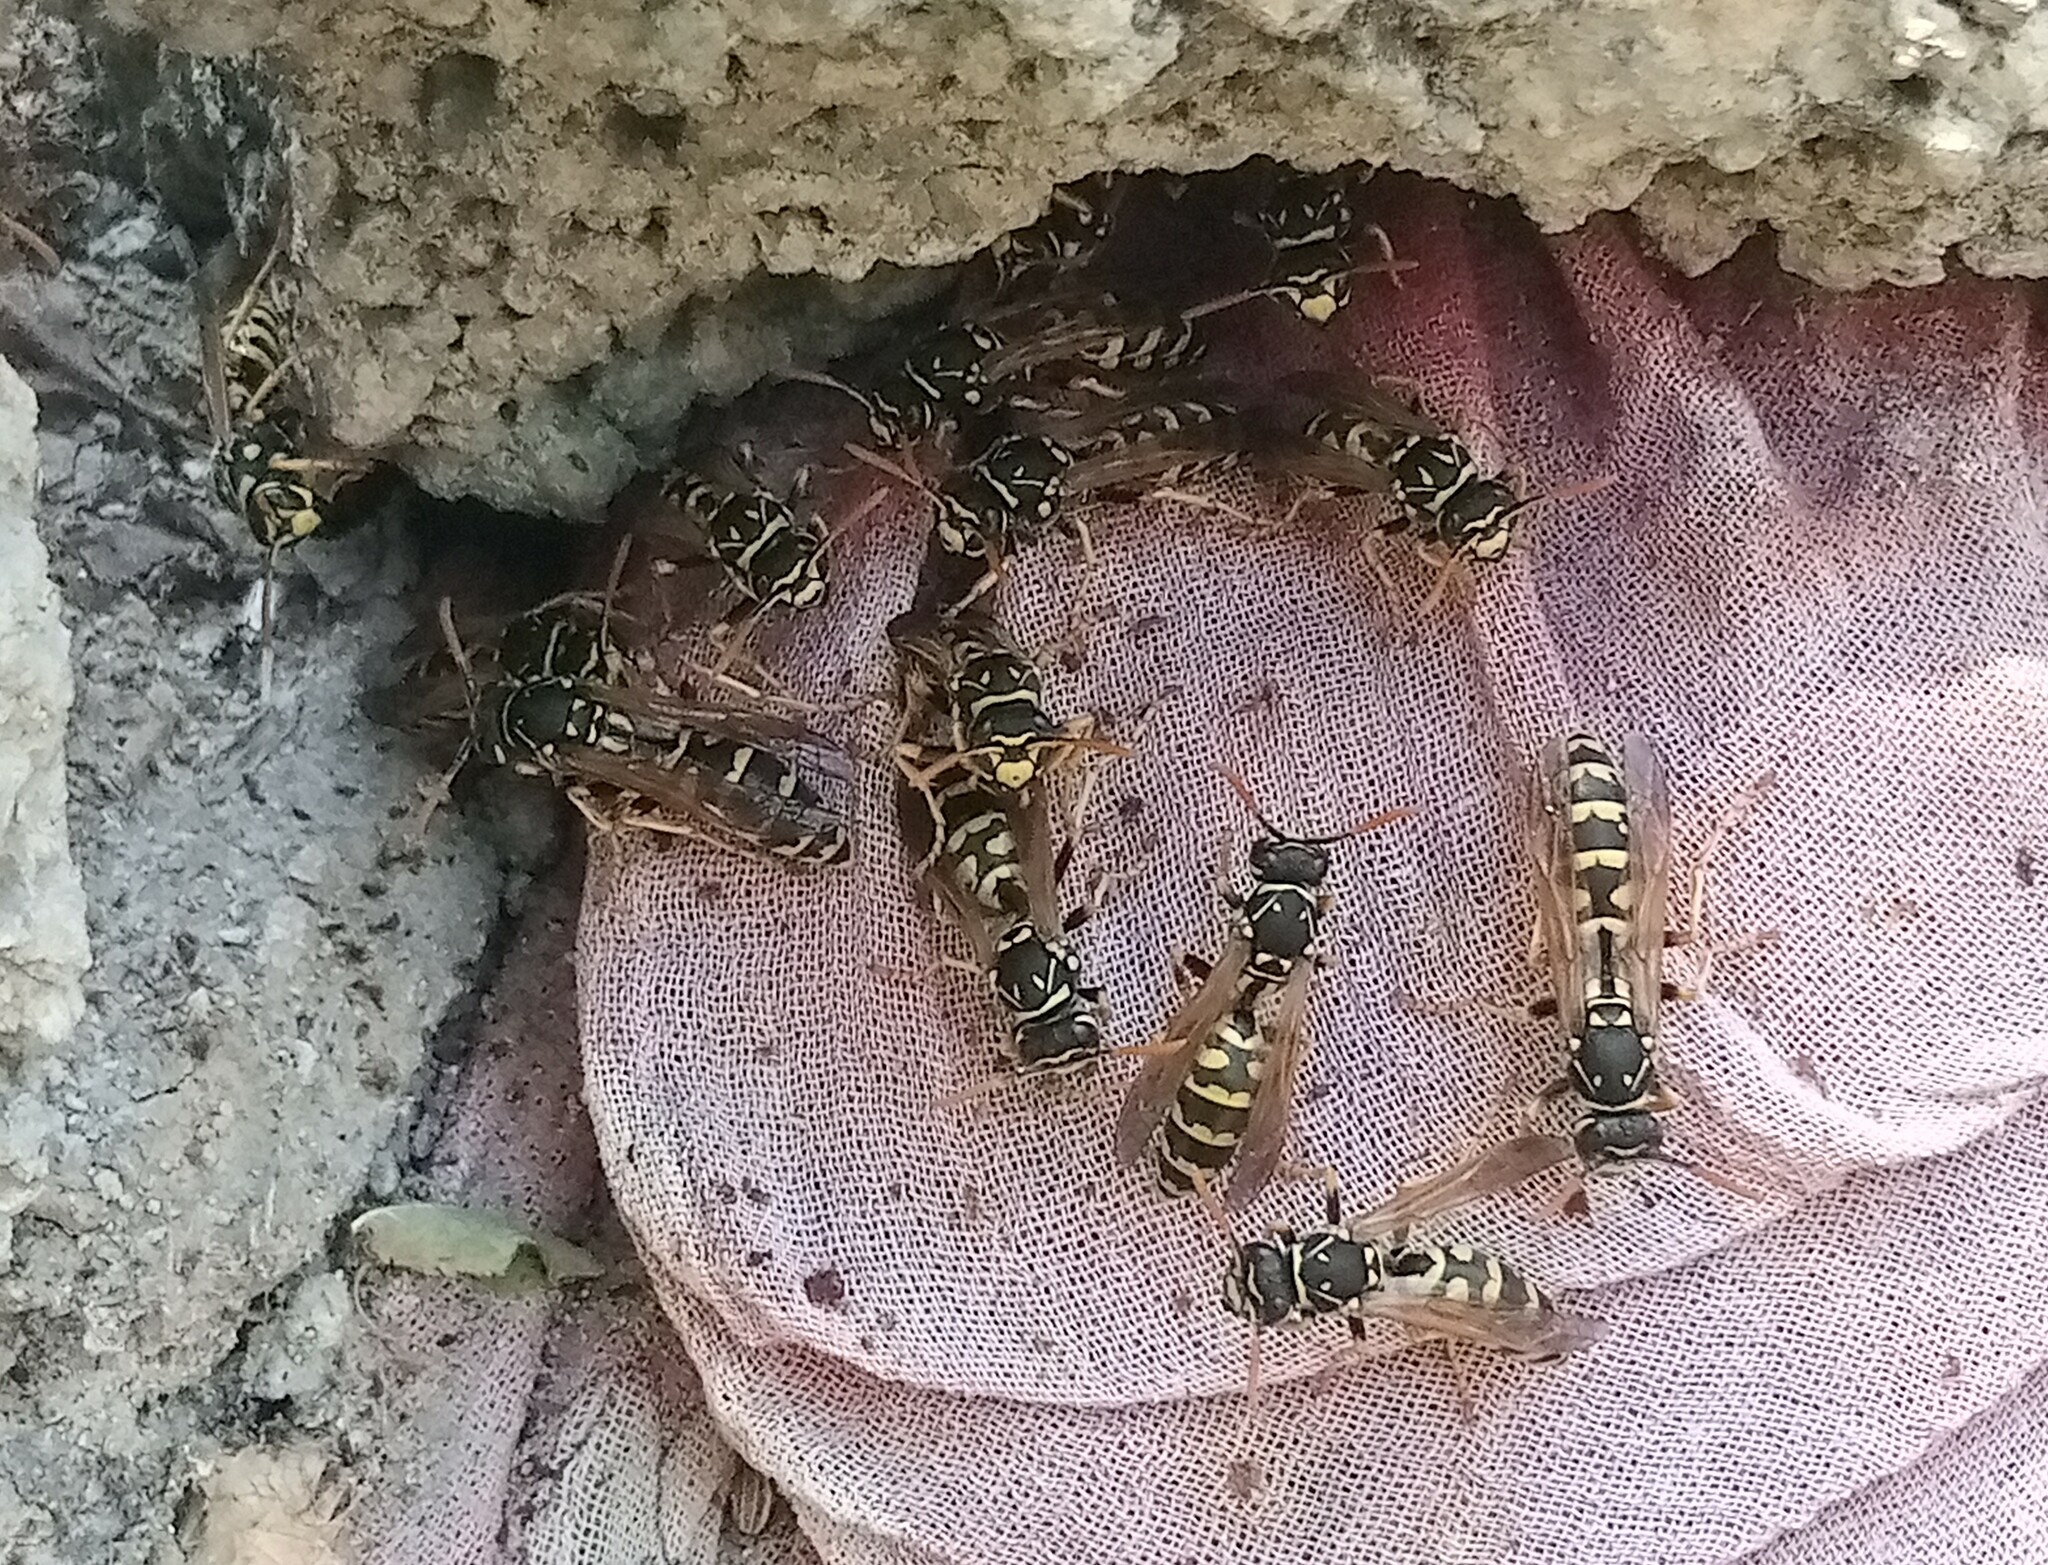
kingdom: Animalia
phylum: Arthropoda
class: Insecta
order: Hymenoptera
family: Eumenidae
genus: Polistes
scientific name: Polistes dominula
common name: Paper wasp
